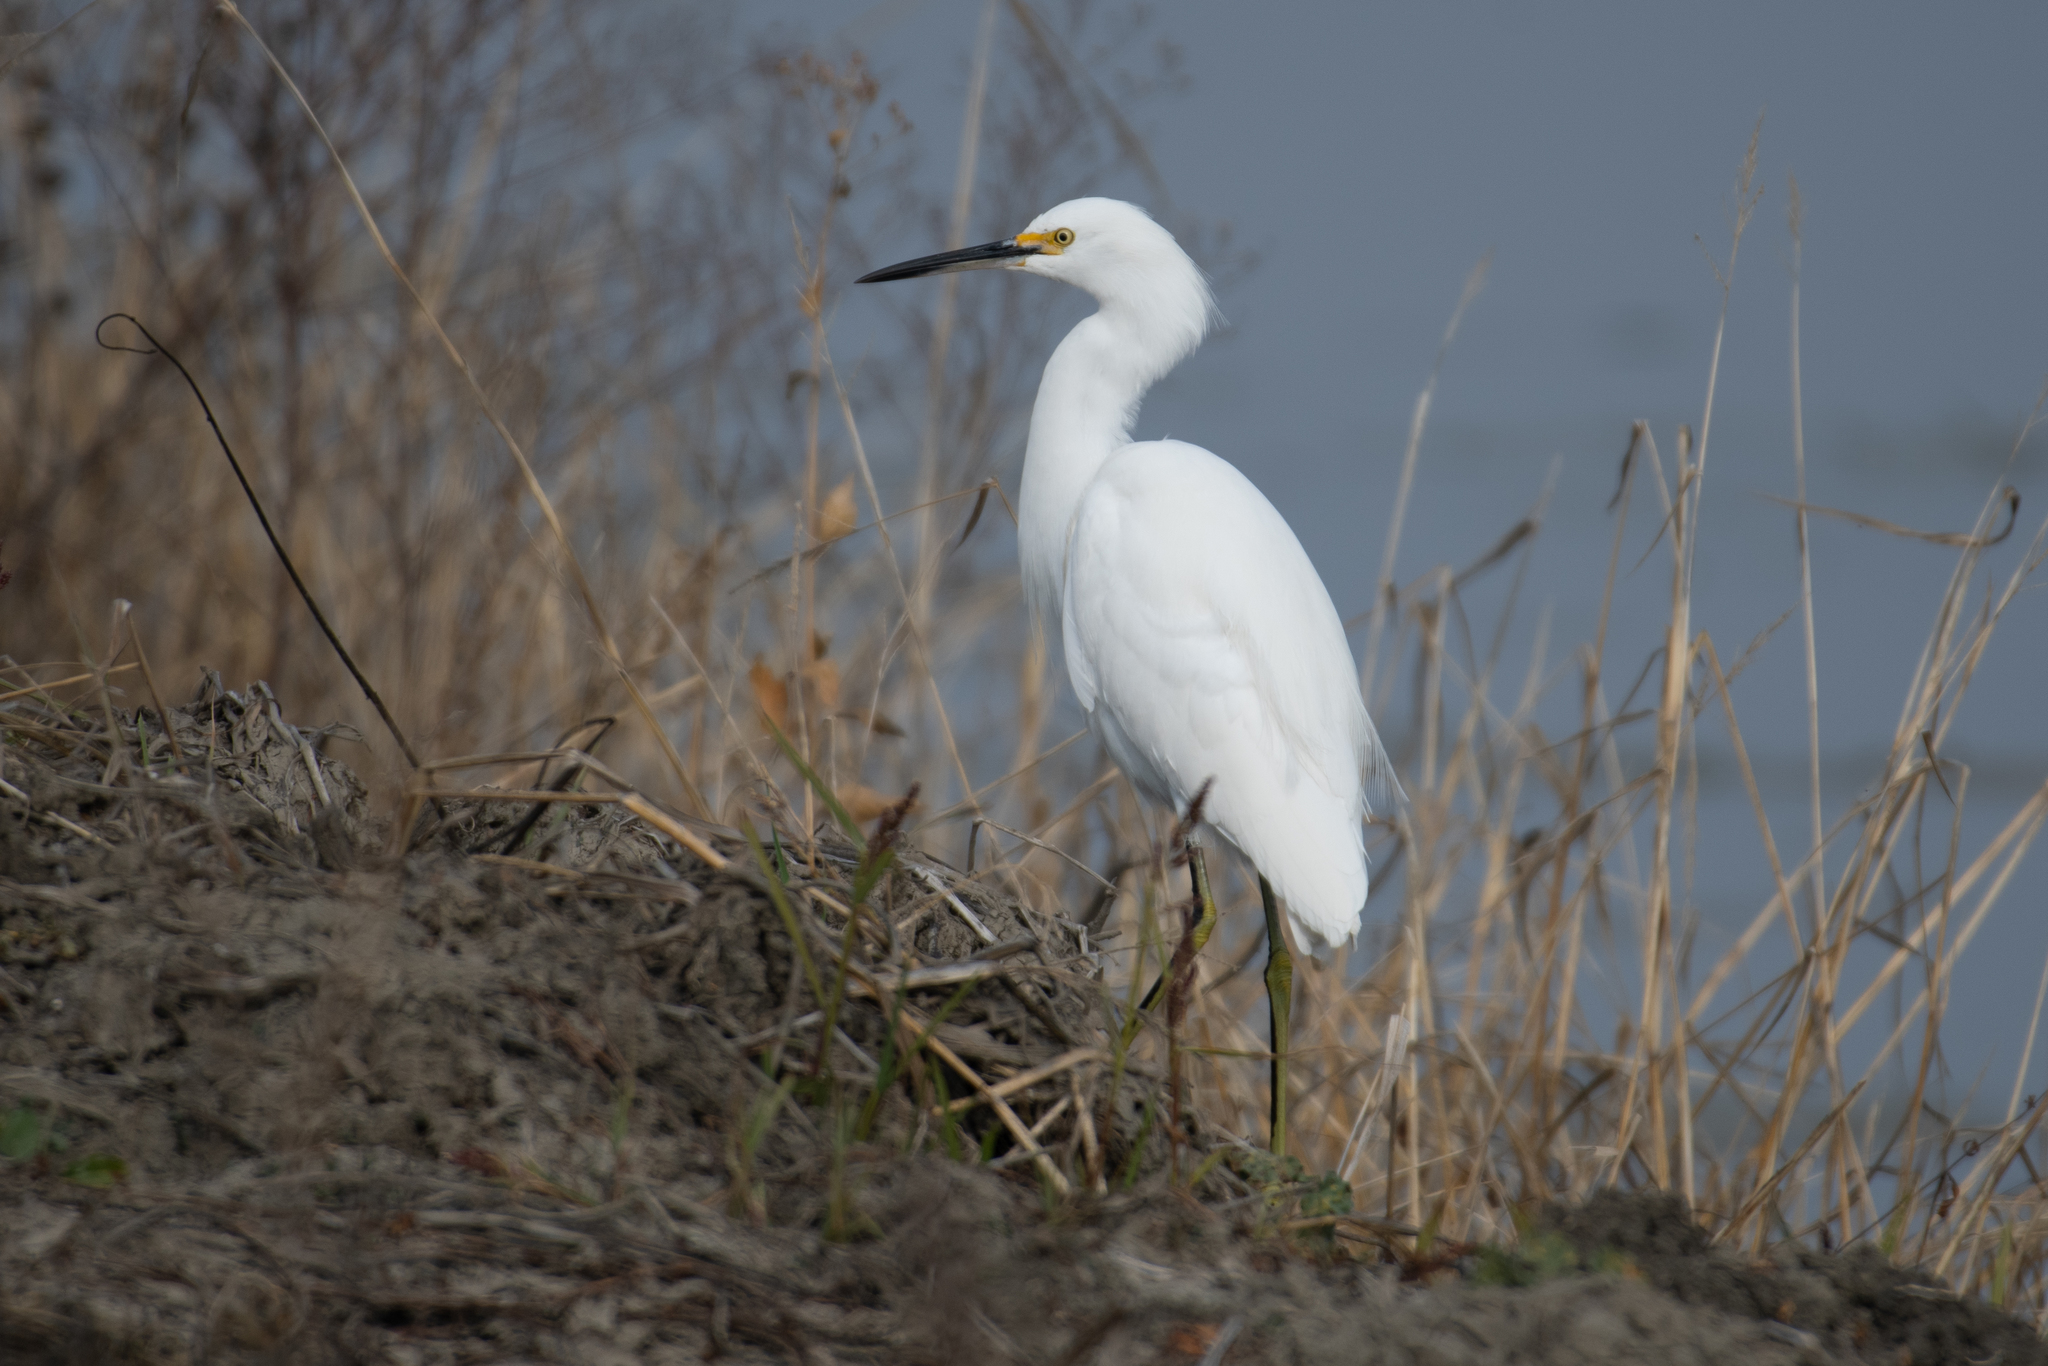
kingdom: Animalia
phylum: Chordata
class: Aves
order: Pelecaniformes
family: Ardeidae
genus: Egretta
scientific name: Egretta thula
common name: Snowy egret
